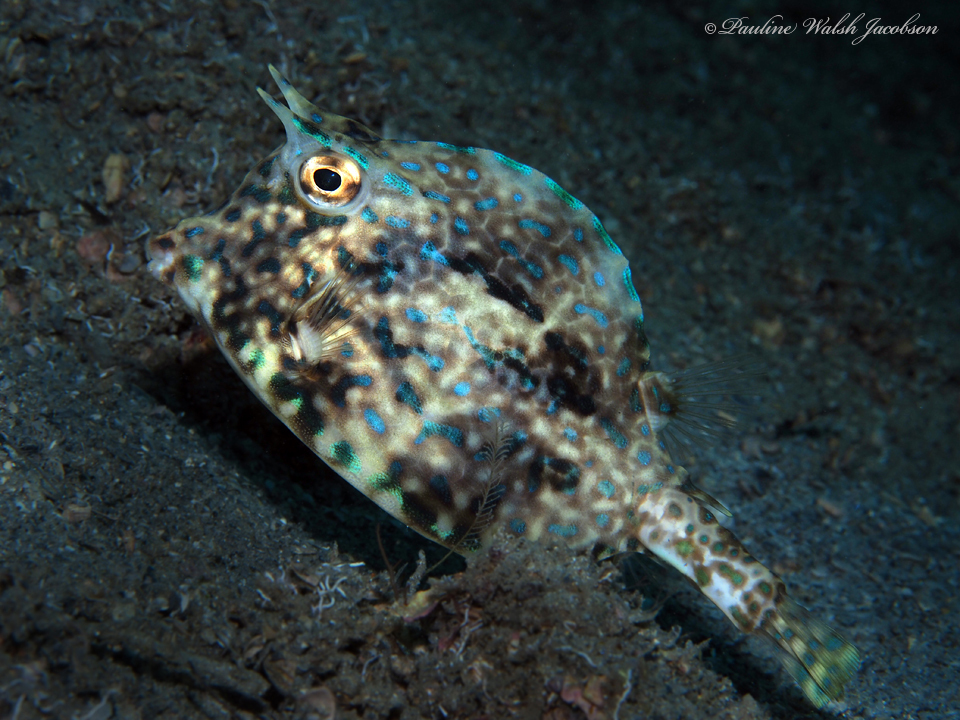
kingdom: Animalia
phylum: Chordata
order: Tetraodontiformes
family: Ostraciidae
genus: Acanthostracion
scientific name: Acanthostracion quadricornis
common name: Scrawled cowfish
